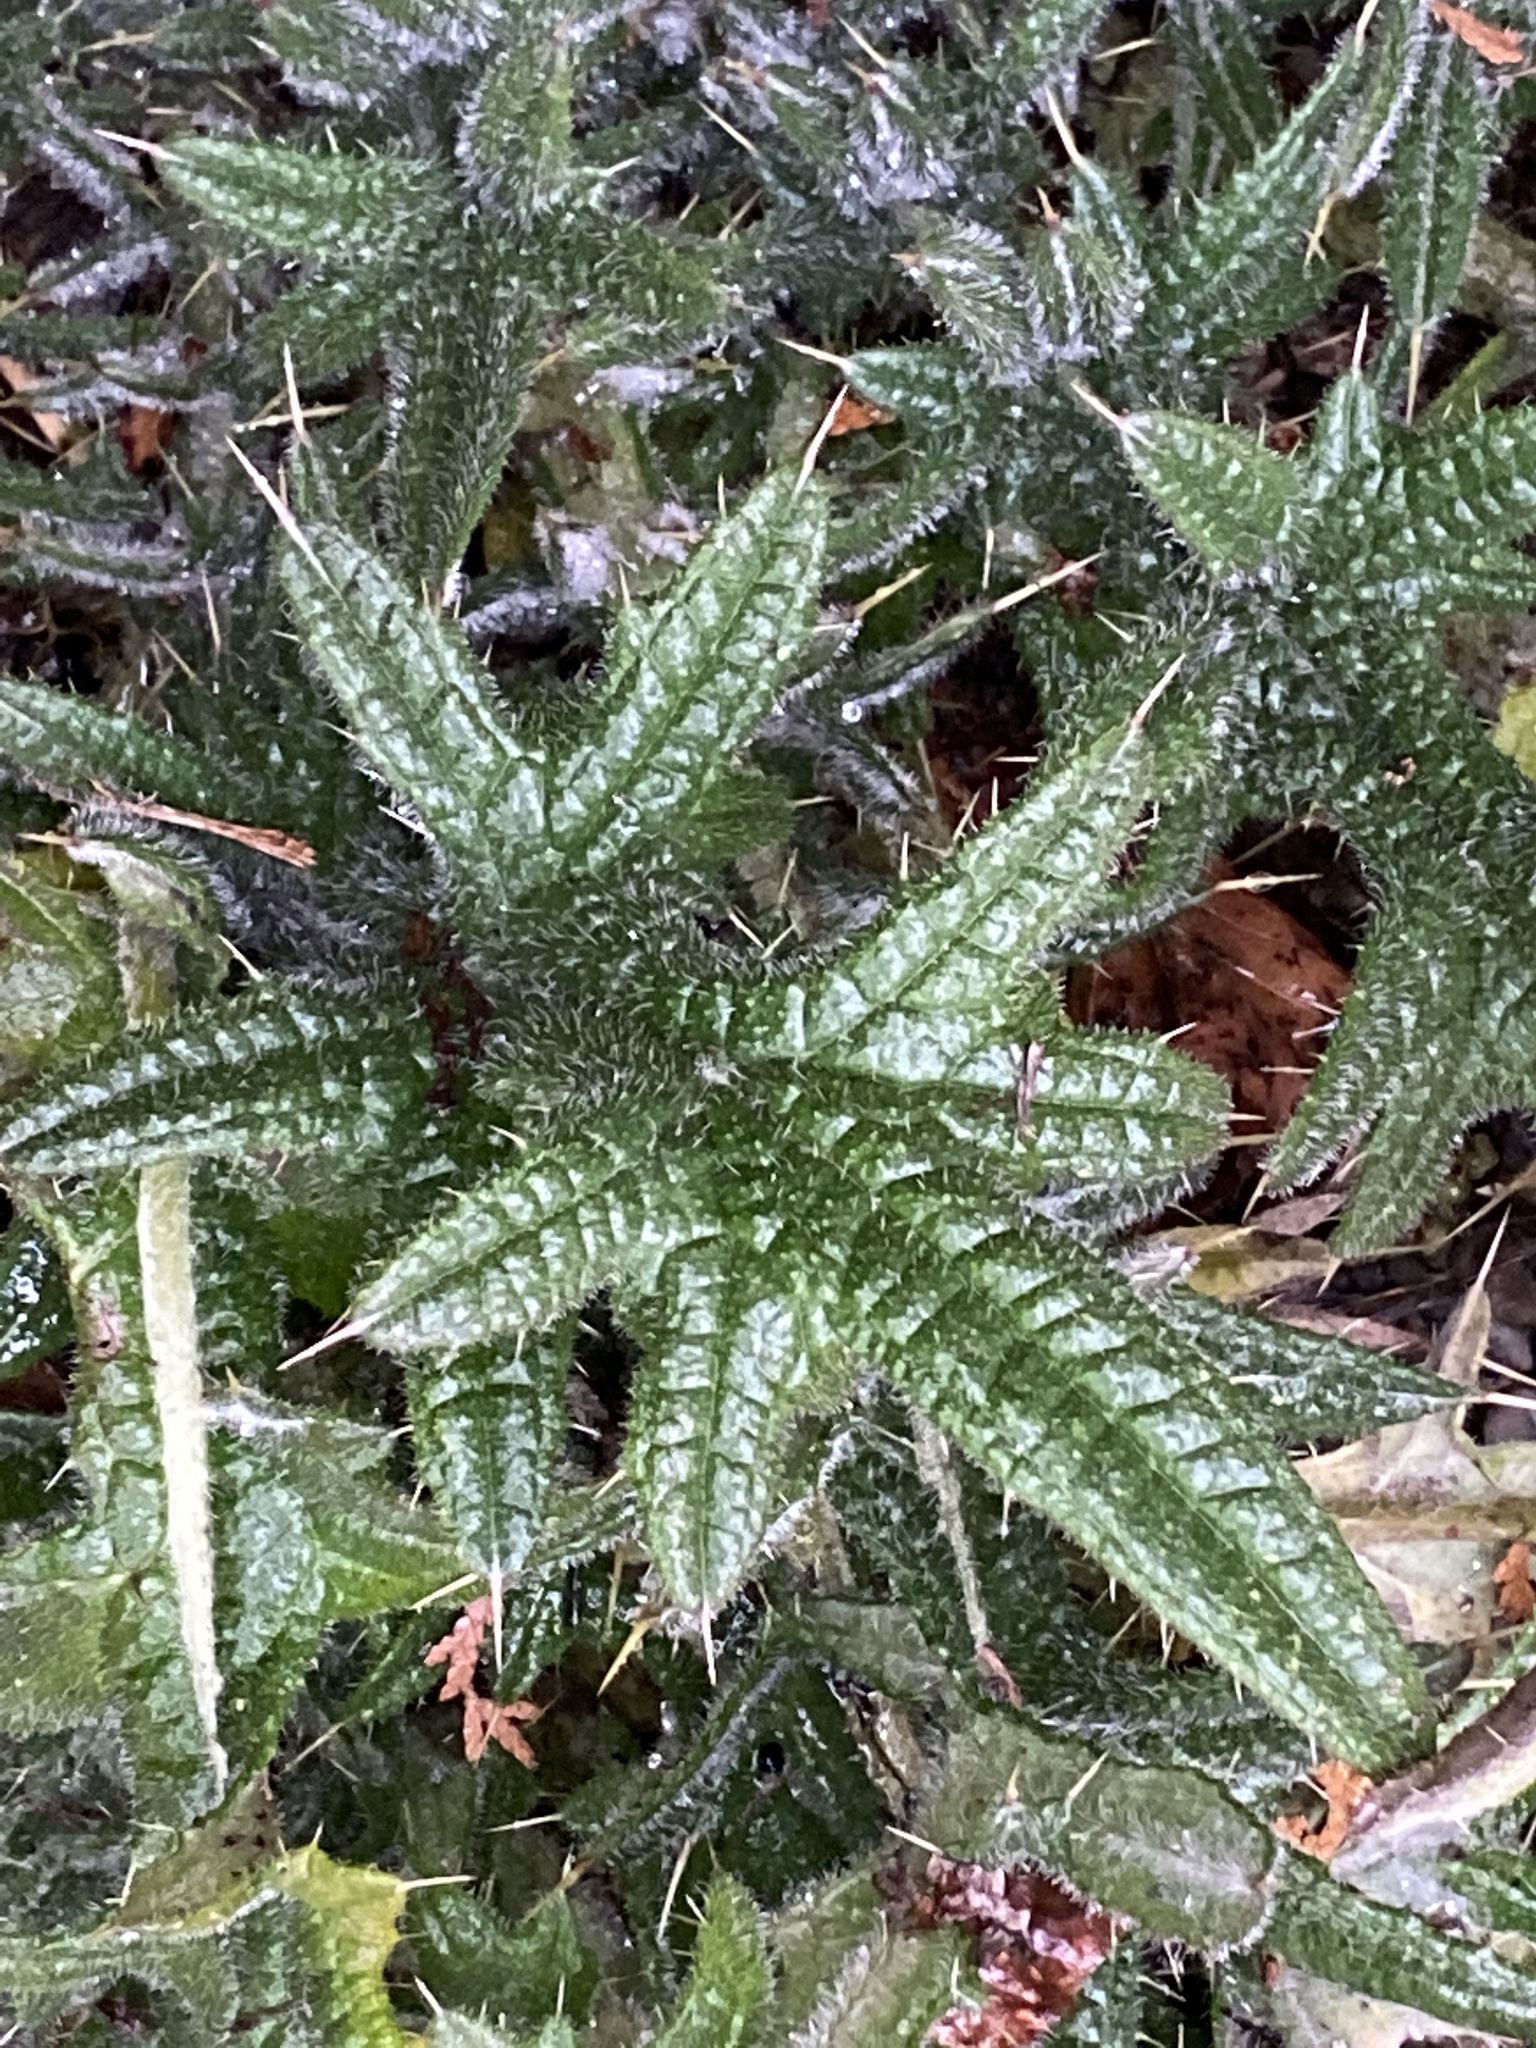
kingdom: Plantae
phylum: Tracheophyta
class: Magnoliopsida
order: Asterales
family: Asteraceae
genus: Cirsium
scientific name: Cirsium vulgare
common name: Bull thistle
